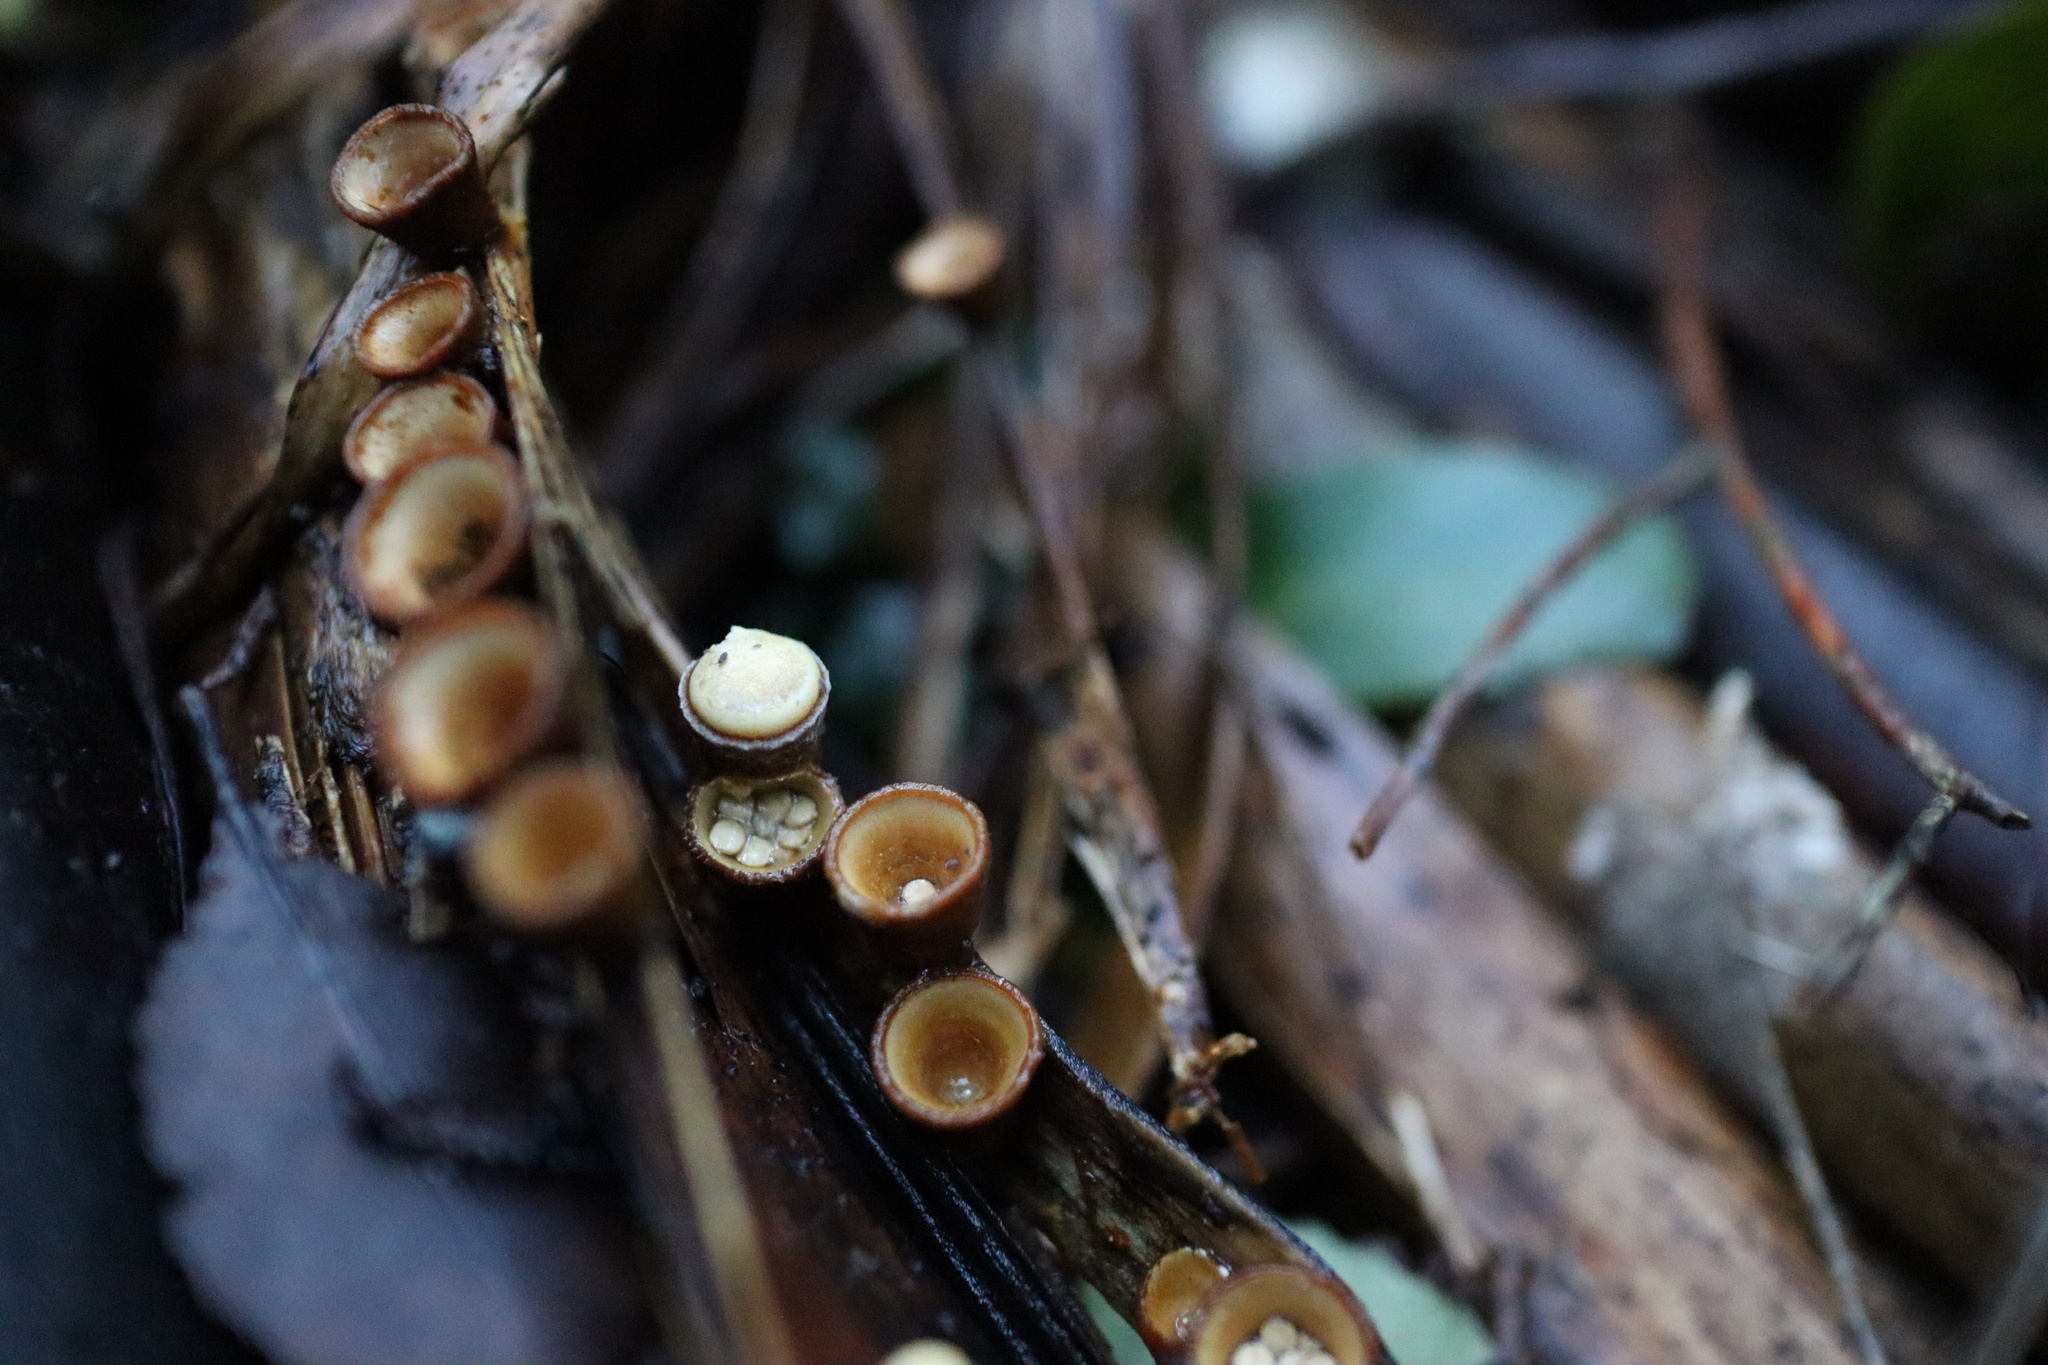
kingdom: Fungi
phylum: Basidiomycota
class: Agaricomycetes
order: Agaricales
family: Nidulariaceae
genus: Crucibulum
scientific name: Crucibulum simile
